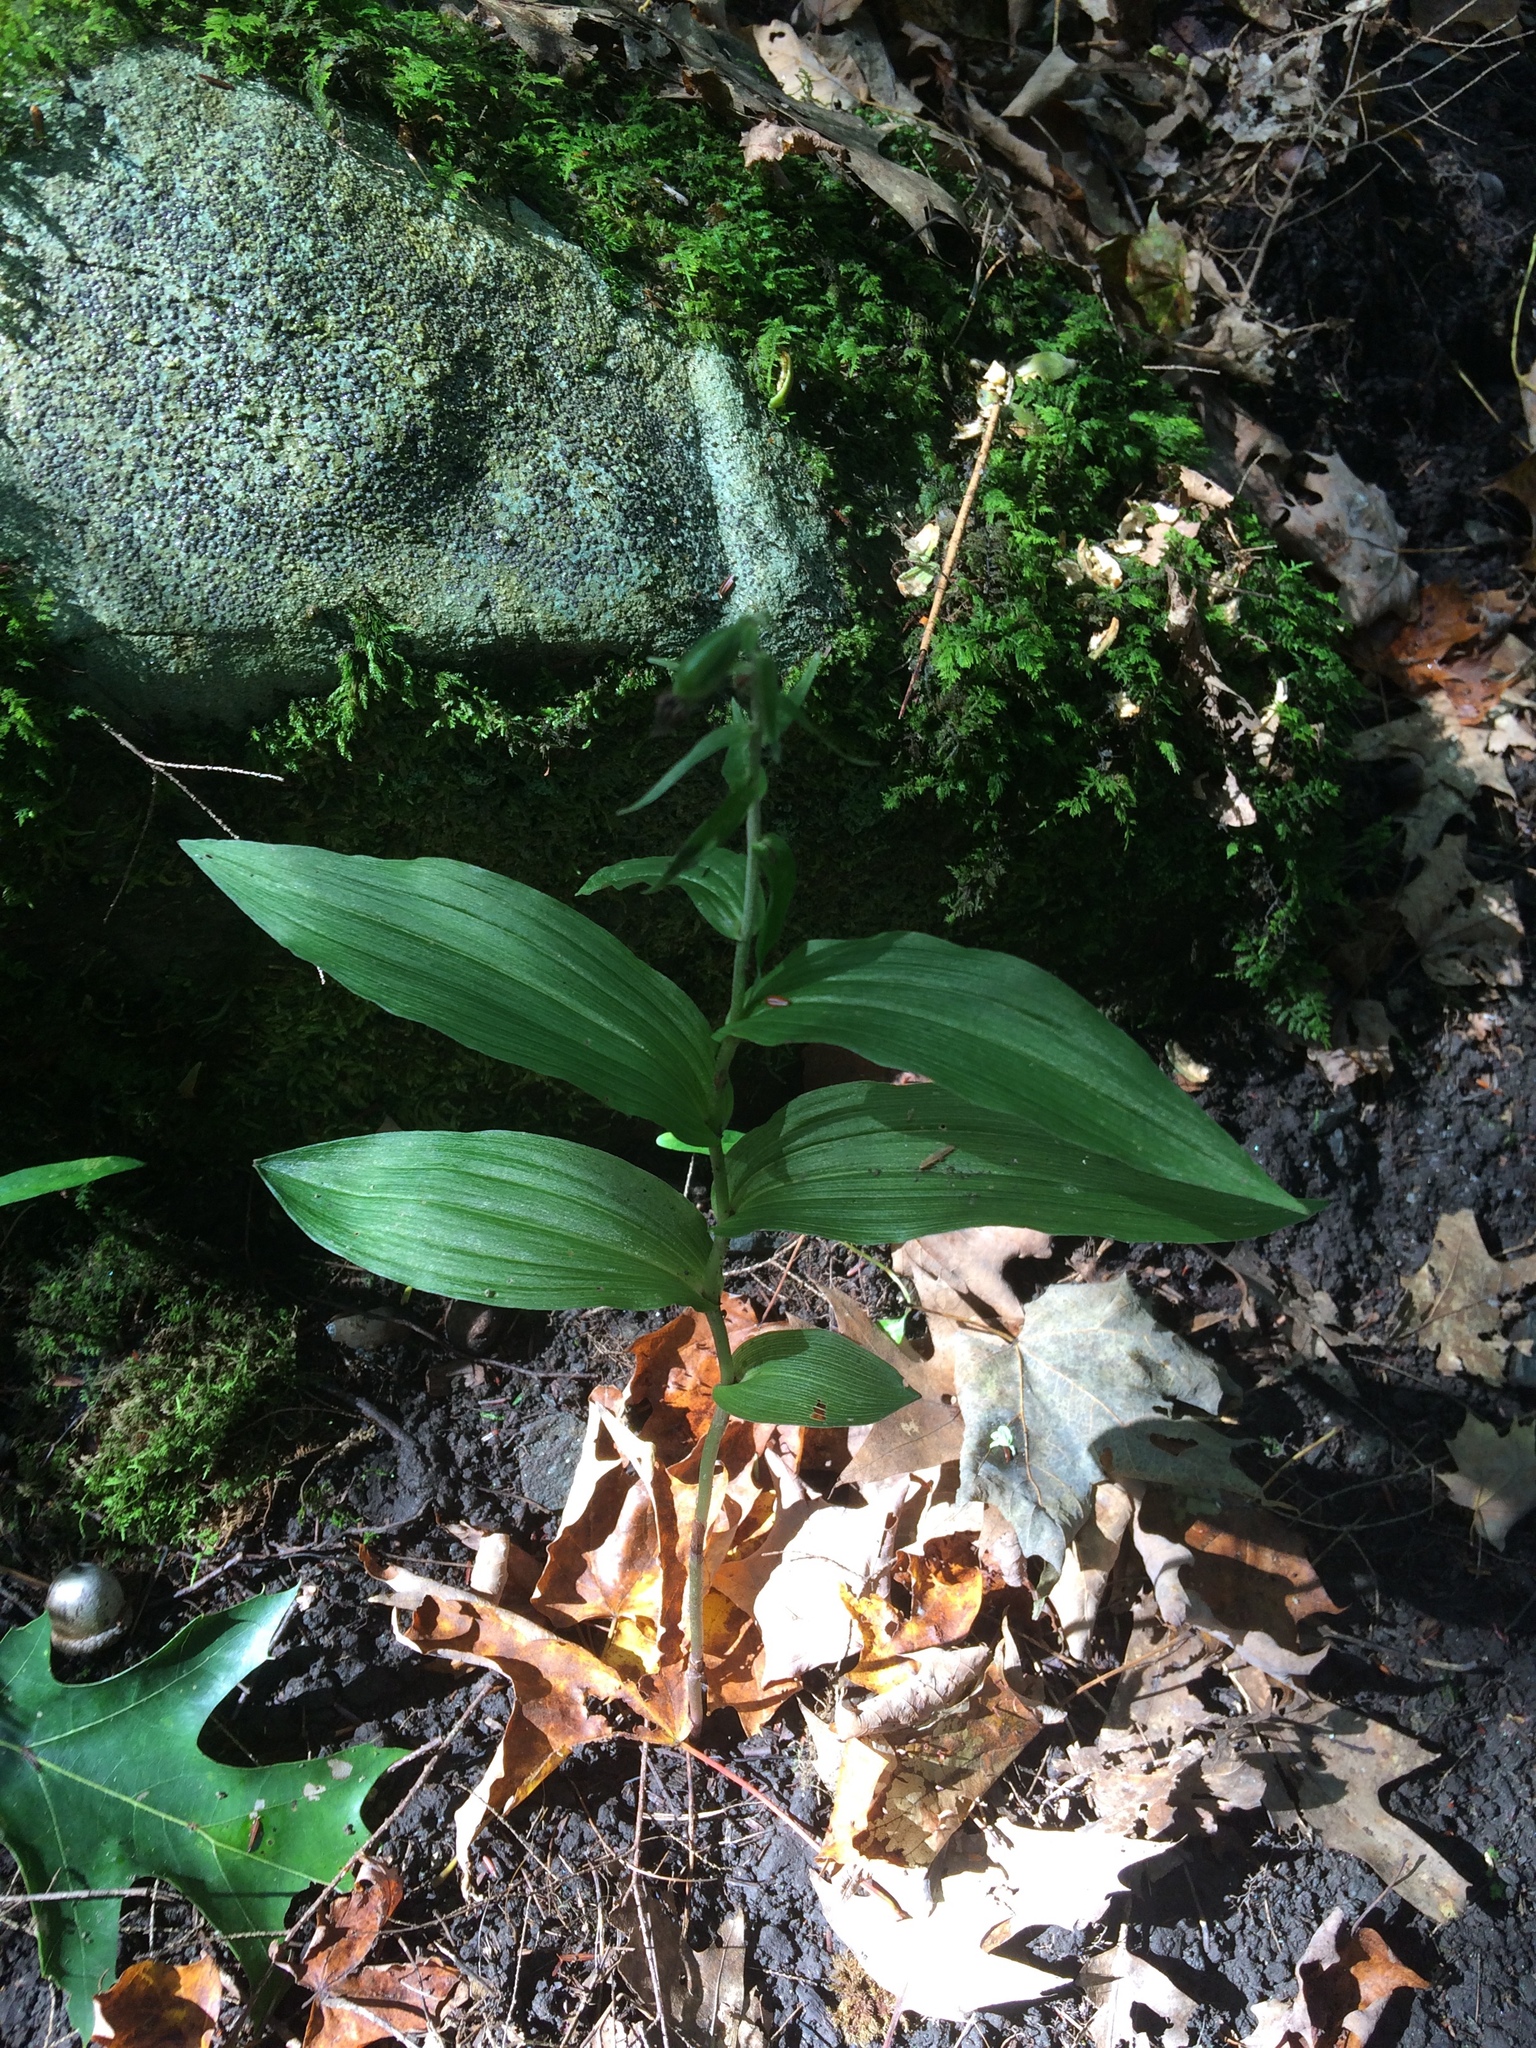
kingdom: Plantae
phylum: Tracheophyta
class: Liliopsida
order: Asparagales
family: Orchidaceae
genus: Epipactis
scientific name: Epipactis helleborine
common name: Broad-leaved helleborine
